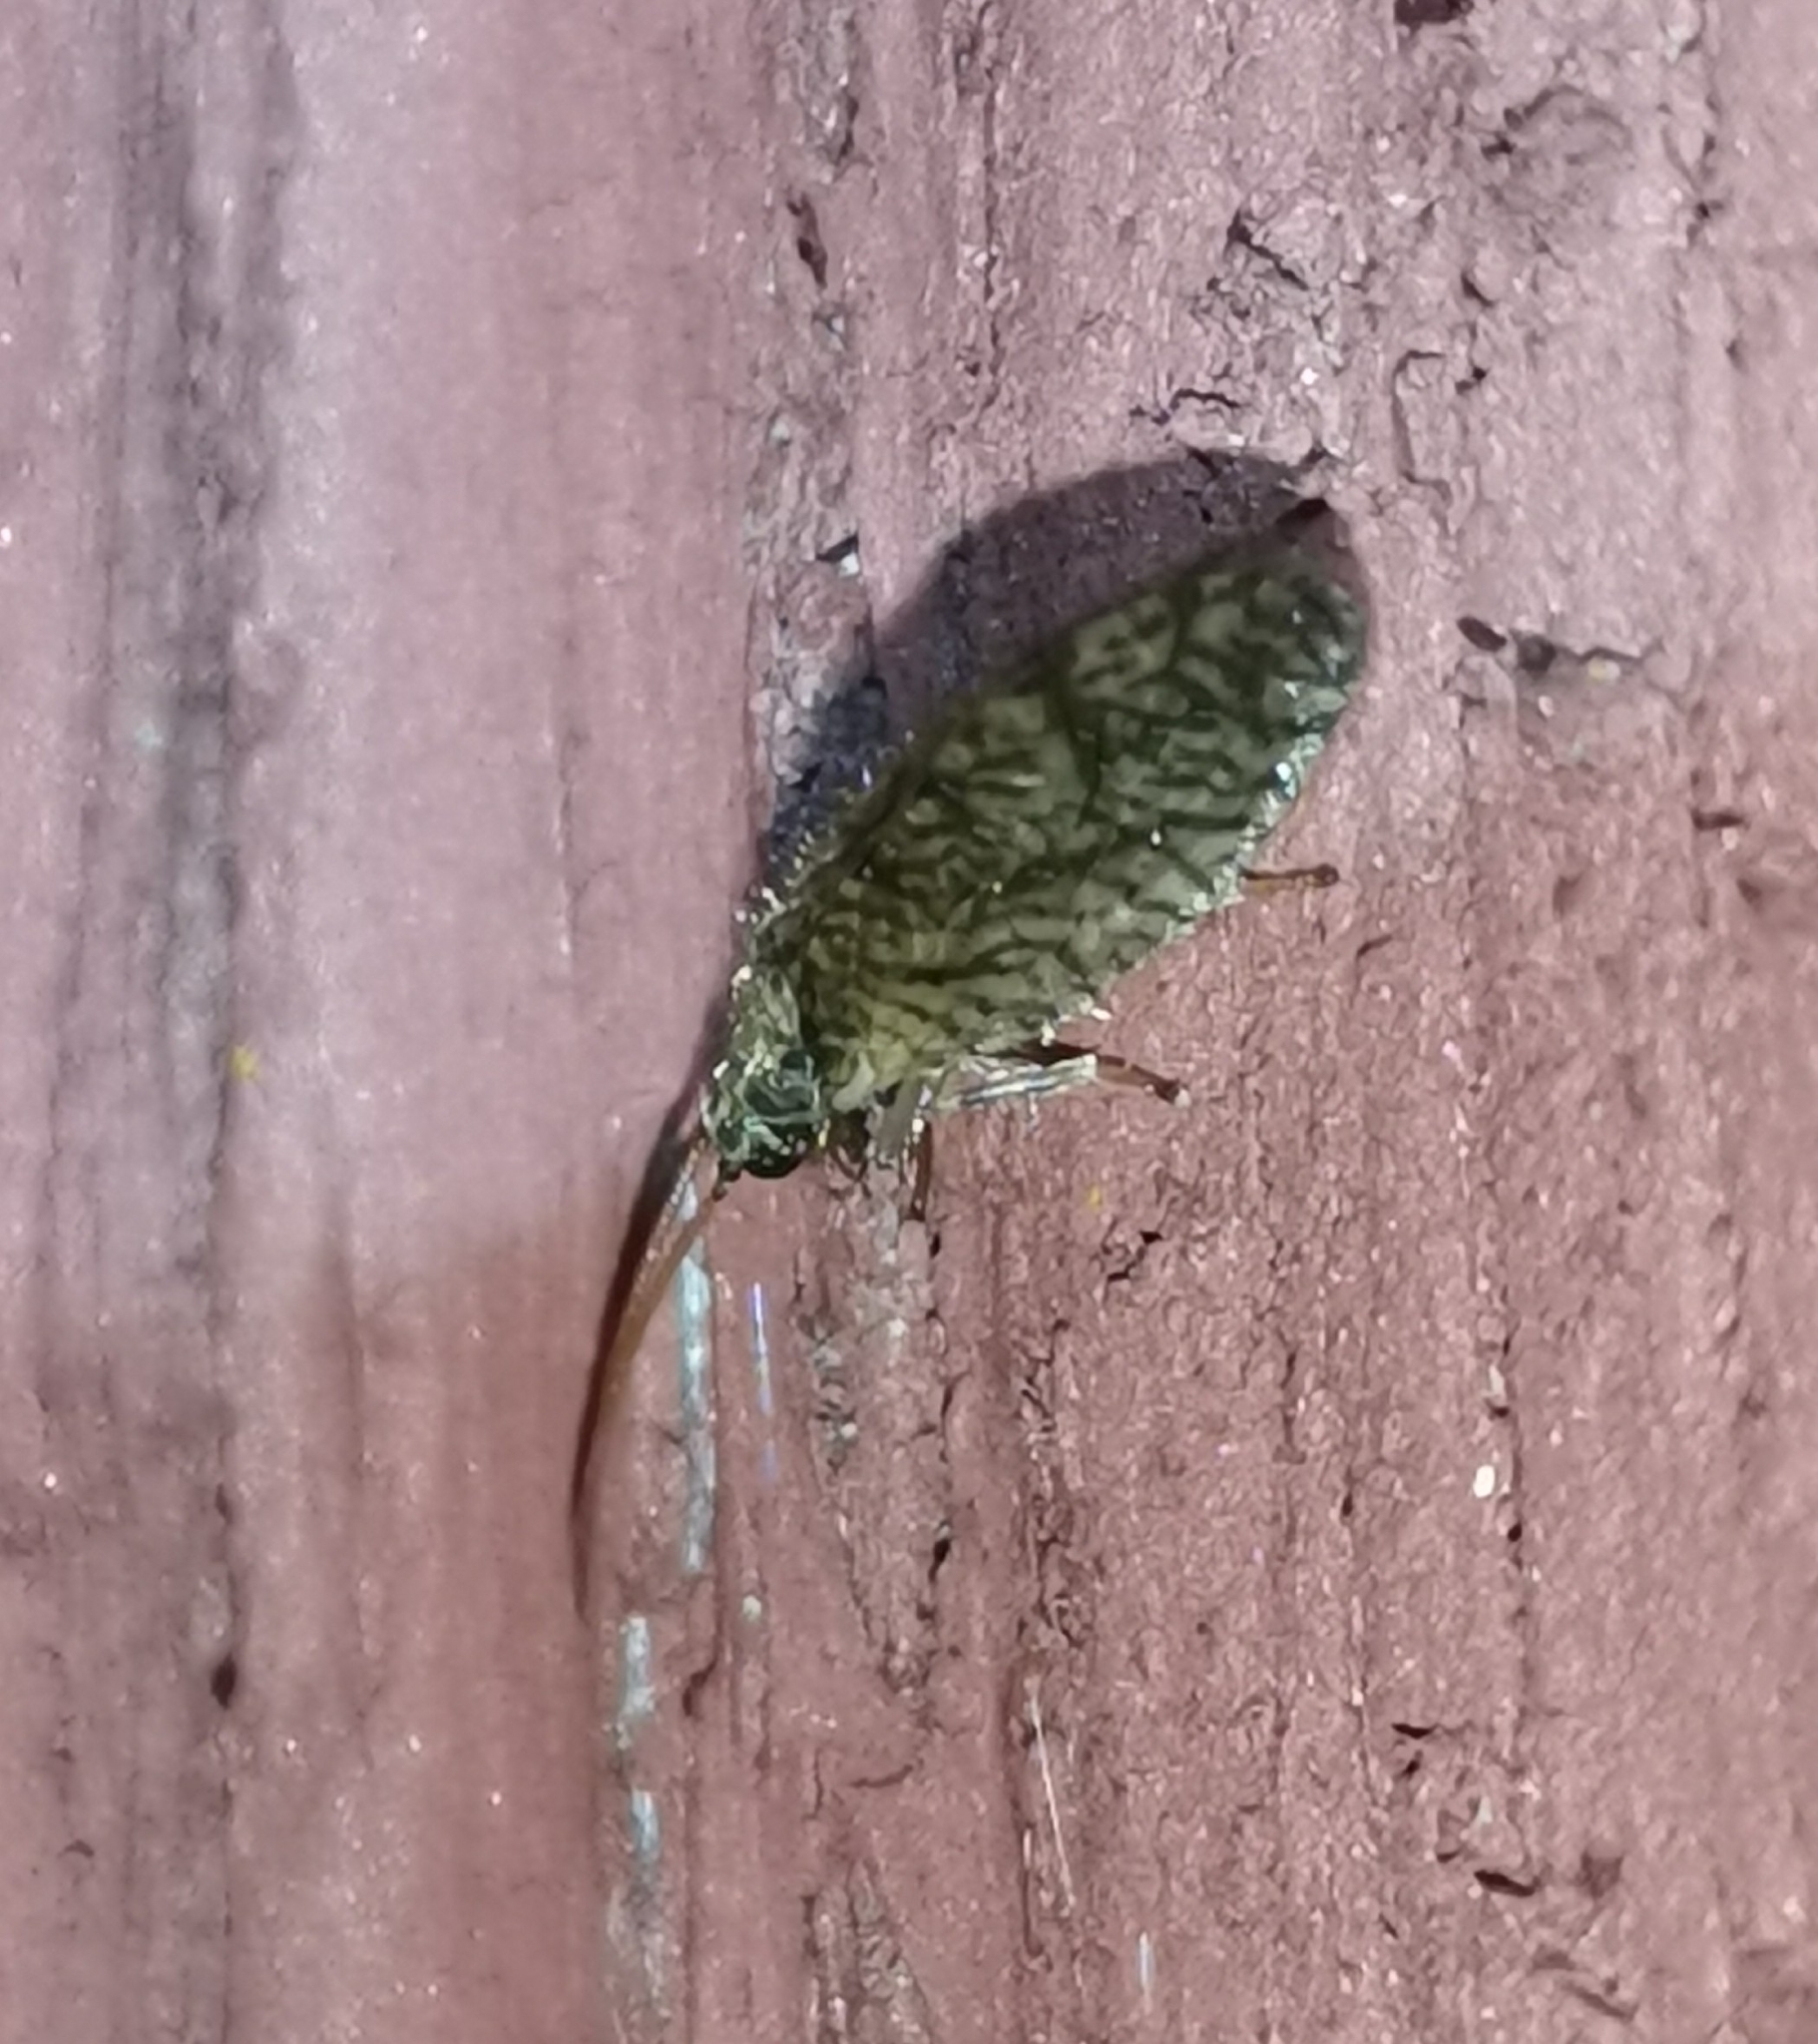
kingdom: Animalia
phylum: Arthropoda
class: Insecta
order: Neuroptera
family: Hemerobiidae
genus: Micromus
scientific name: Micromus angulatus
